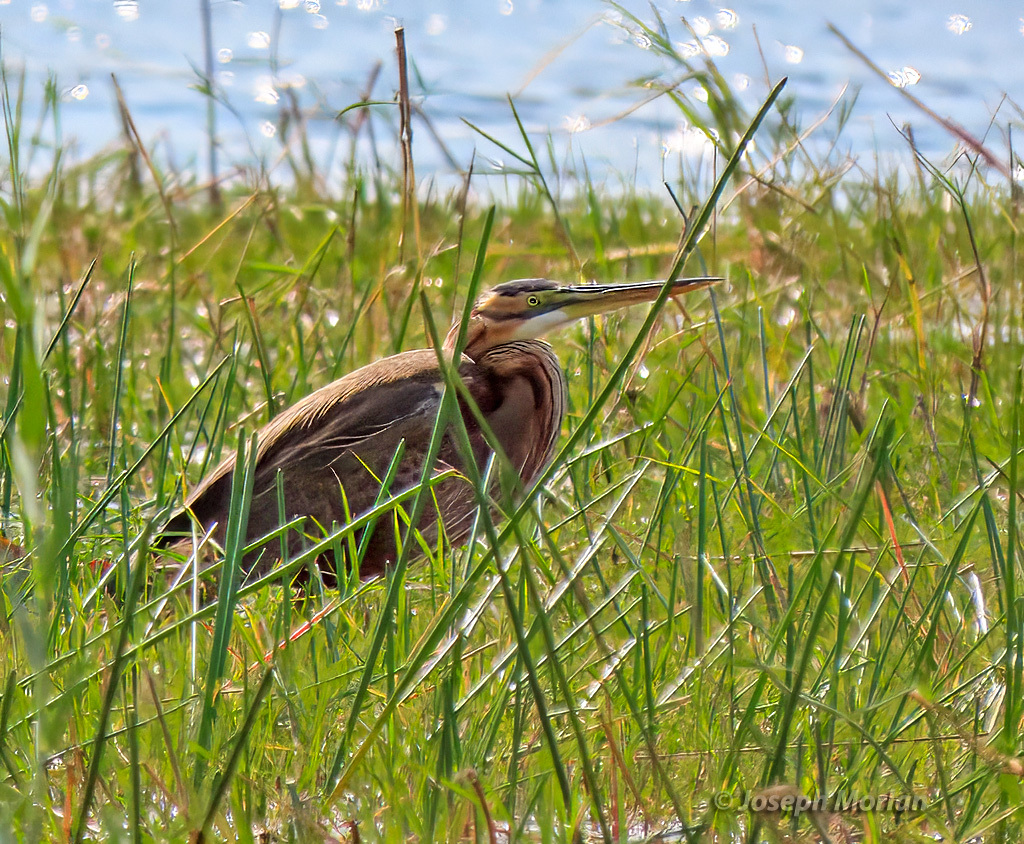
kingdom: Animalia
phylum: Chordata
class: Aves
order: Pelecaniformes
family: Ardeidae
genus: Ardea
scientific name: Ardea purpurea
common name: Purple heron
